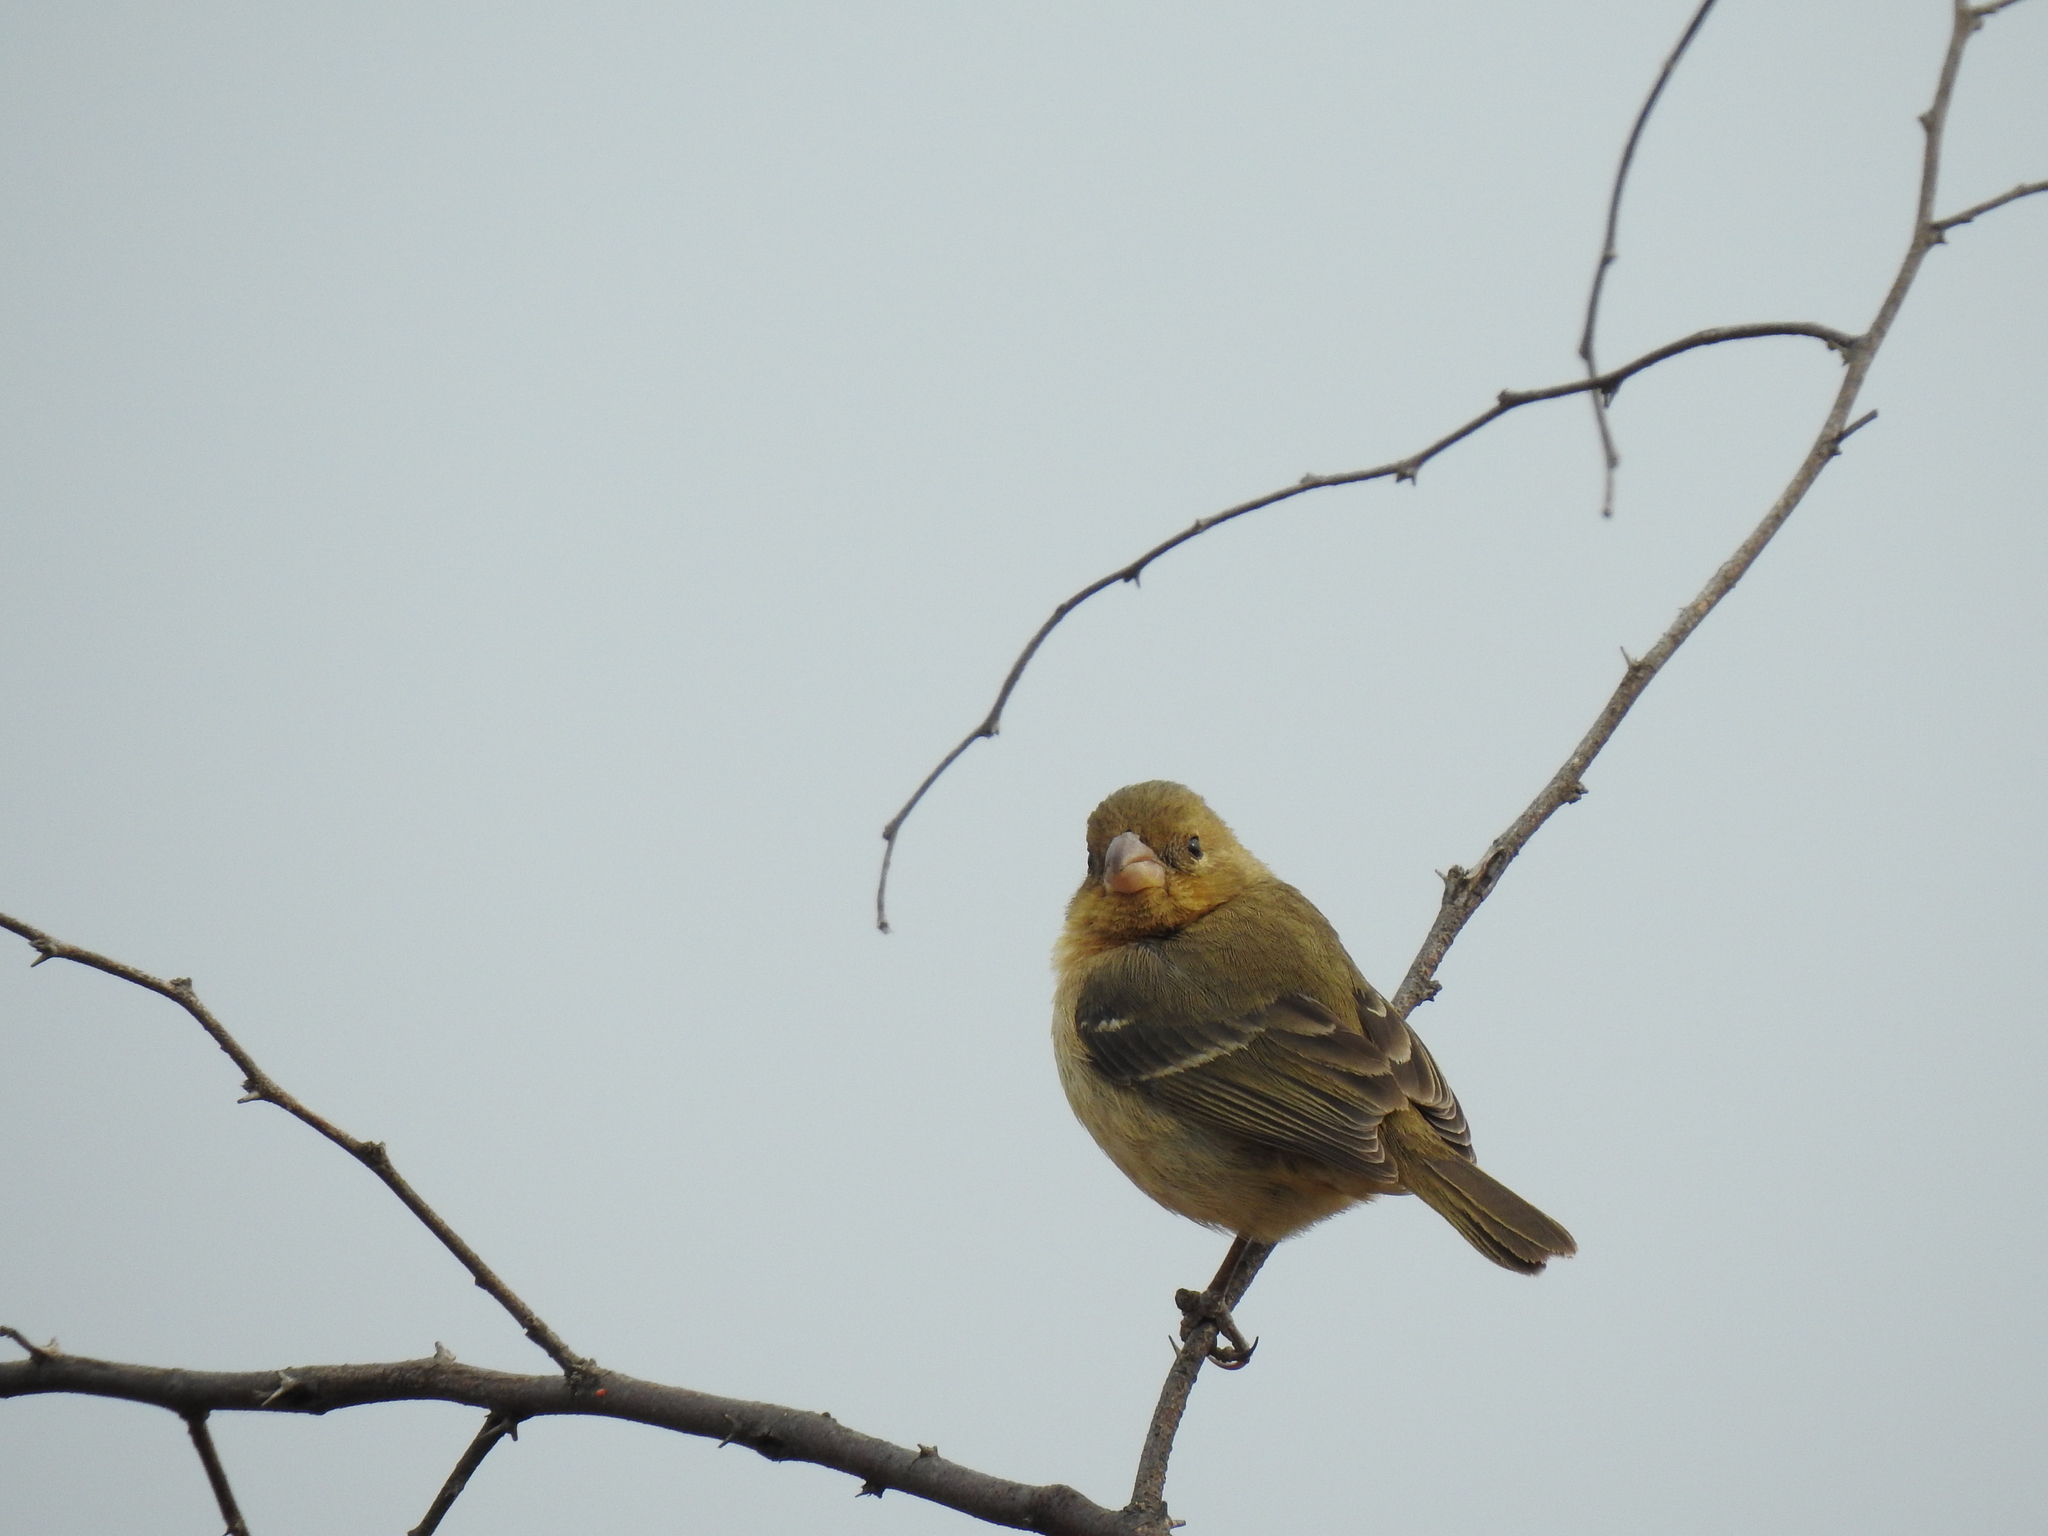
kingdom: Animalia
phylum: Chordata
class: Aves
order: Passeriformes
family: Thraupidae
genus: Sporophila
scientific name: Sporophila morelleti
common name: Morelet's seedeater
